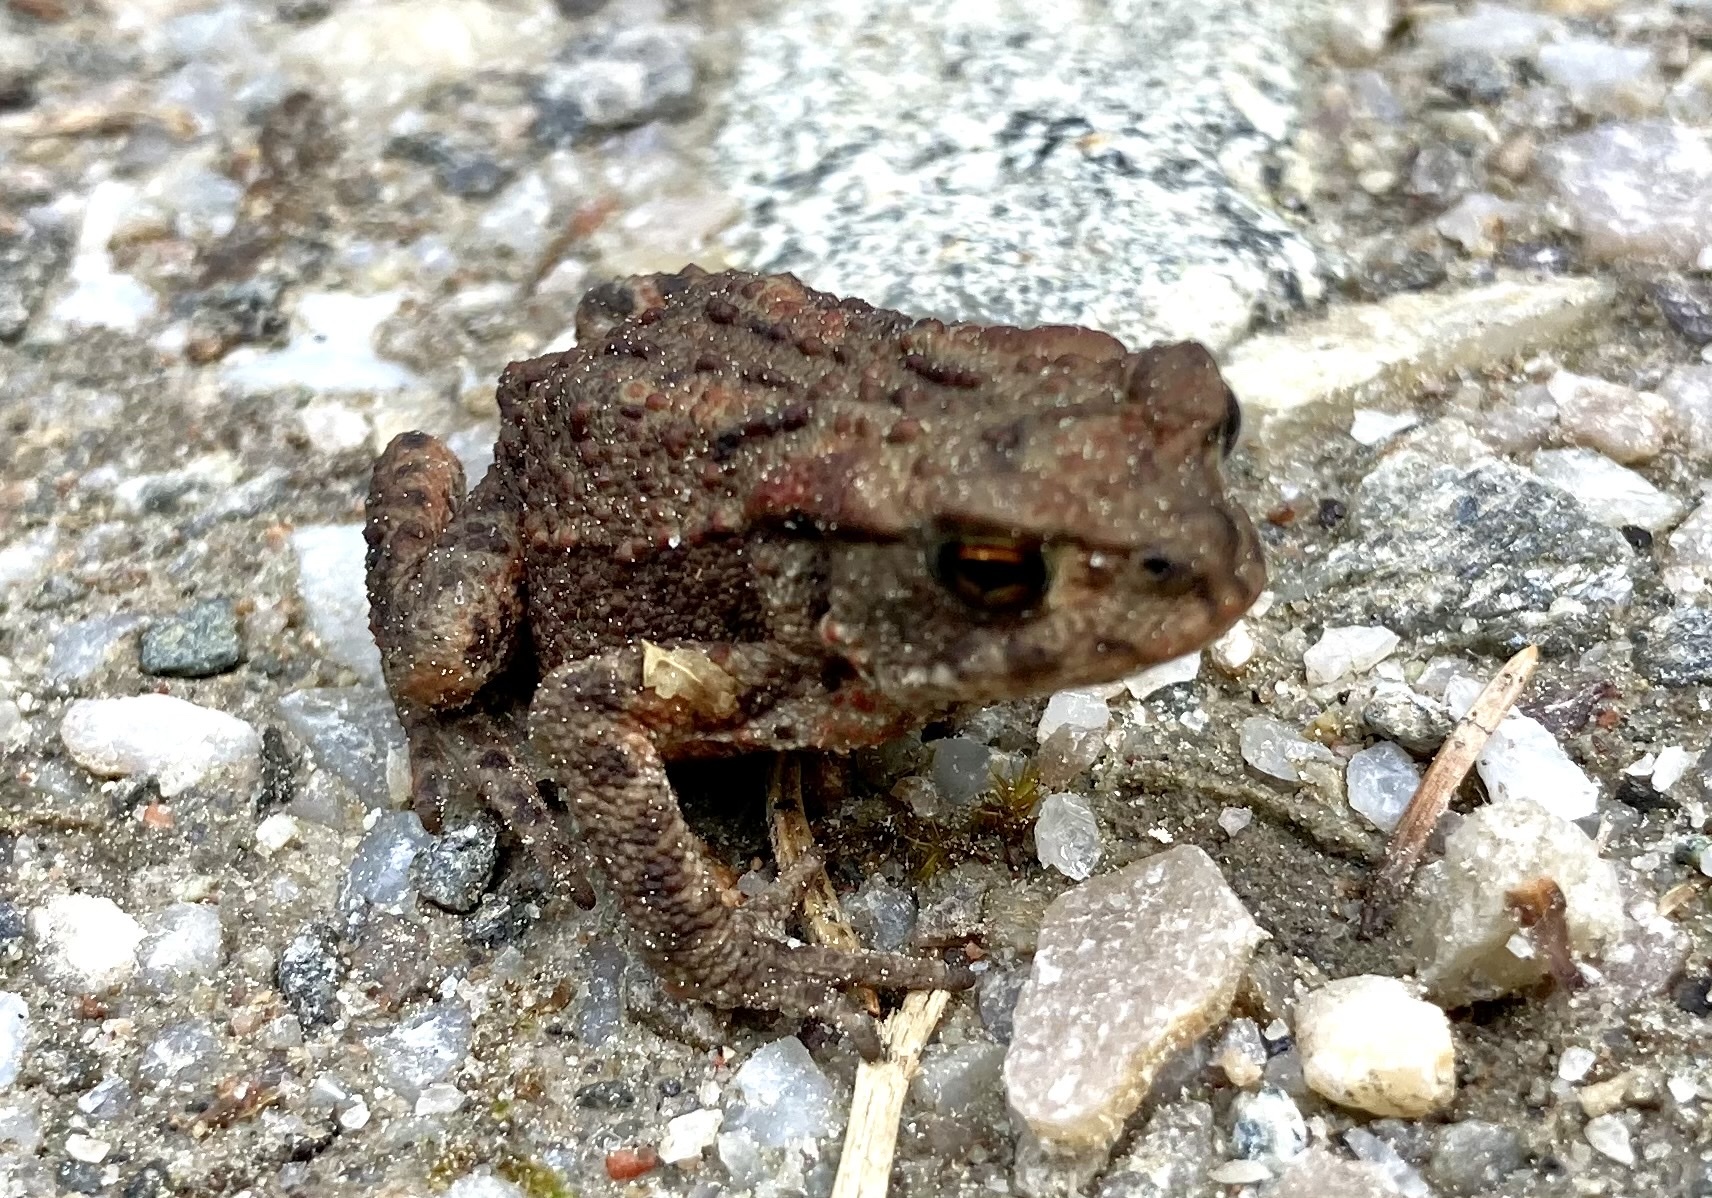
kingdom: Animalia
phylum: Chordata
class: Amphibia
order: Anura
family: Bufonidae
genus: Bufo
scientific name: Bufo bufo
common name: Common toad
